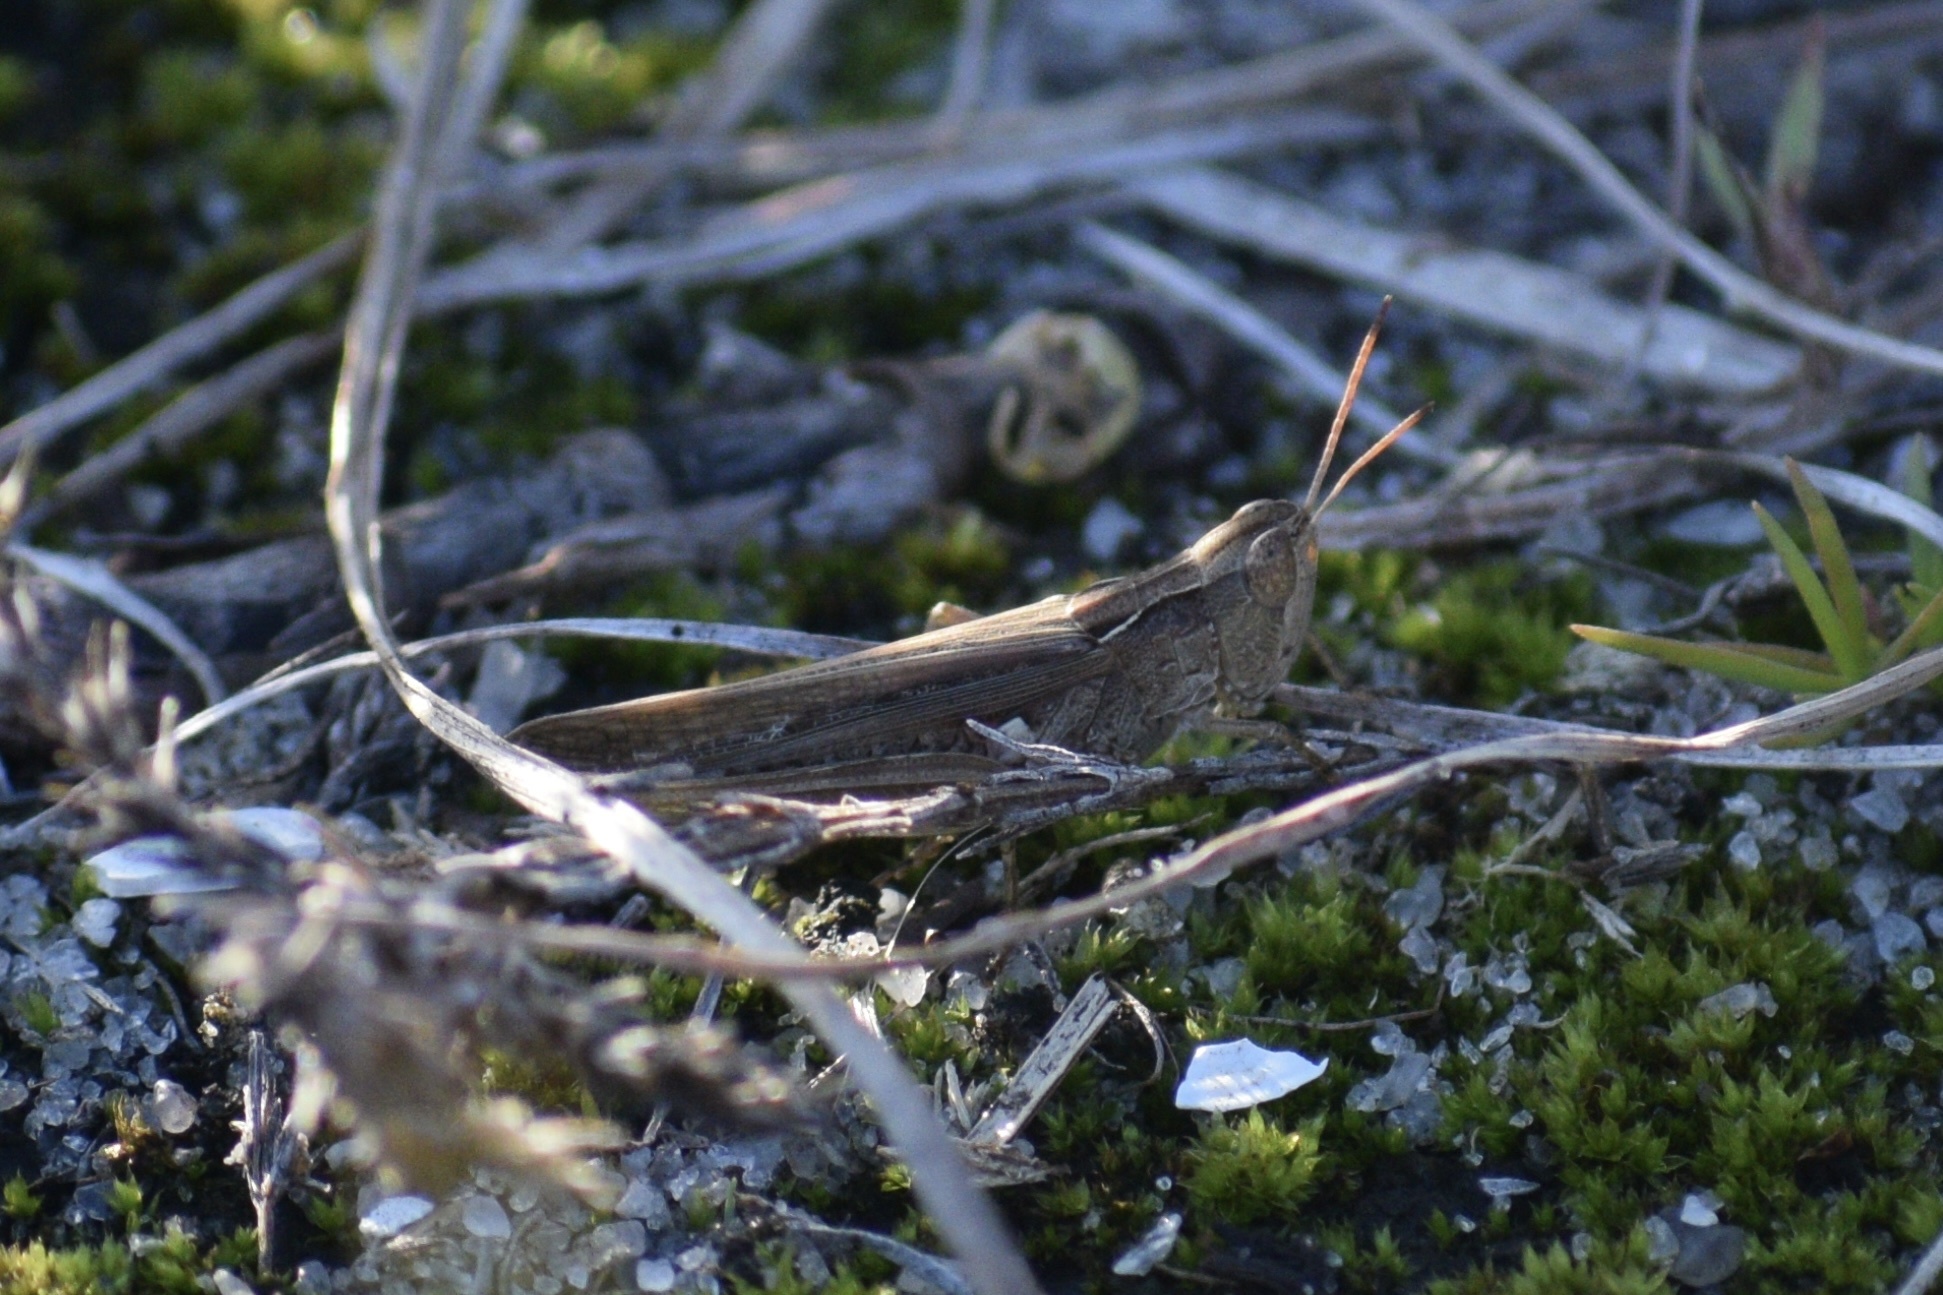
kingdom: Animalia
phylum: Arthropoda
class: Insecta
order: Orthoptera
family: Acrididae
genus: Orphulella
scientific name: Orphulella pelidna
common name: Spotted-wing grasshopper
